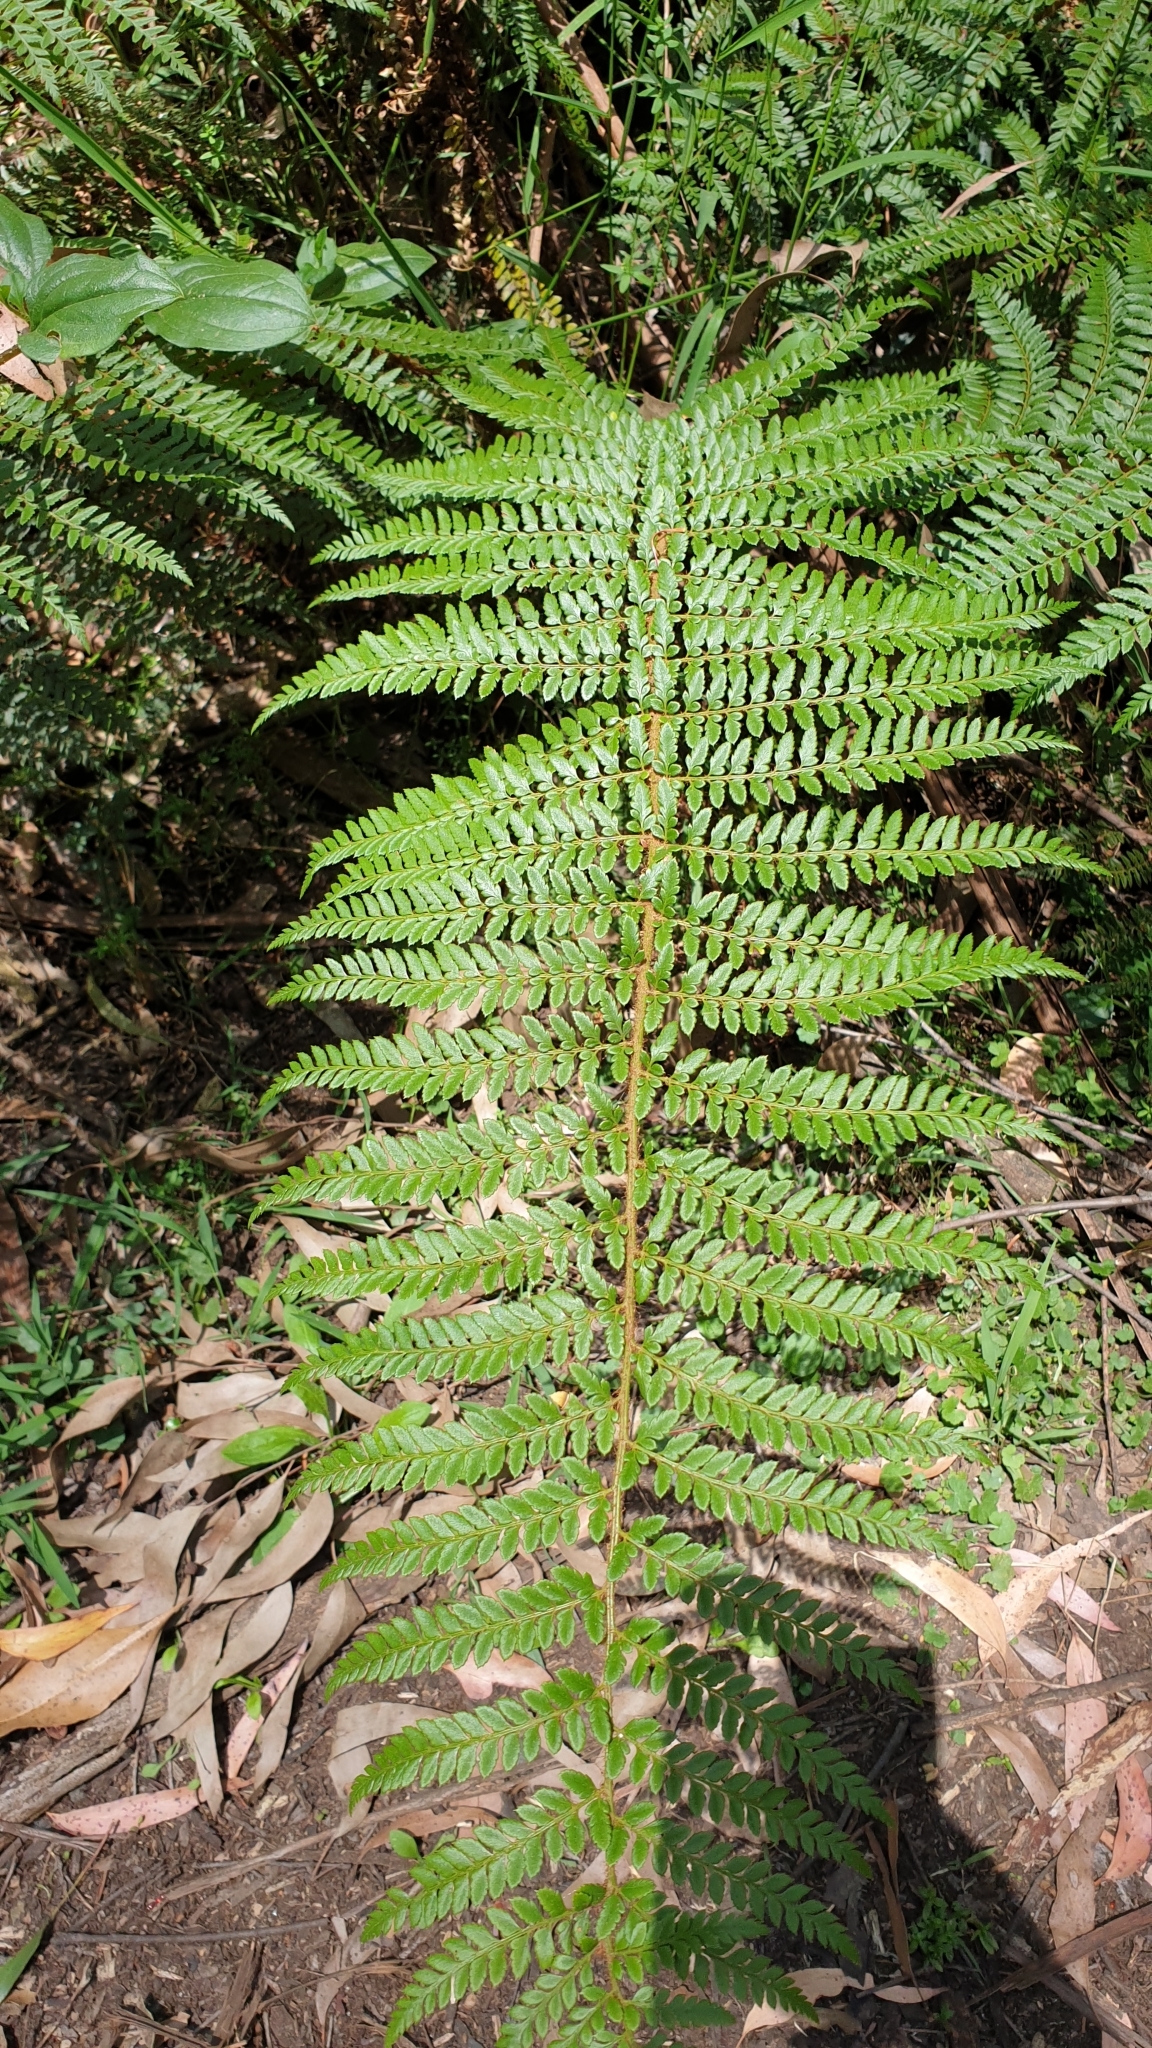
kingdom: Plantae
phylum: Tracheophyta
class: Polypodiopsida
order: Polypodiales
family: Dryopteridaceae
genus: Polystichum
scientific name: Polystichum proliferum
